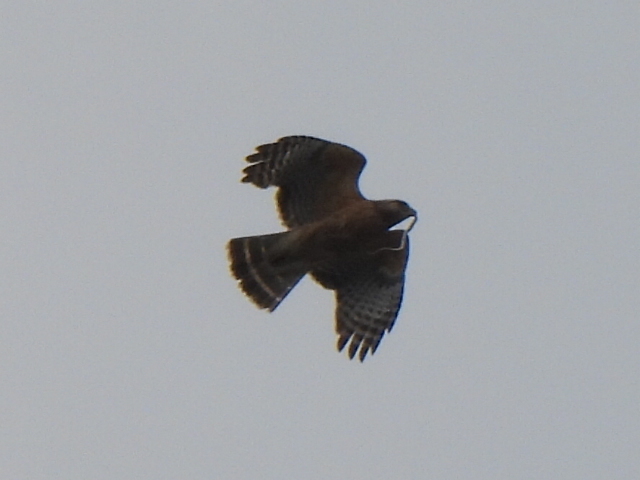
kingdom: Animalia
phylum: Chordata
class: Aves
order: Accipitriformes
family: Accipitridae
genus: Buteo
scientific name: Buteo lineatus
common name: Red-shouldered hawk
